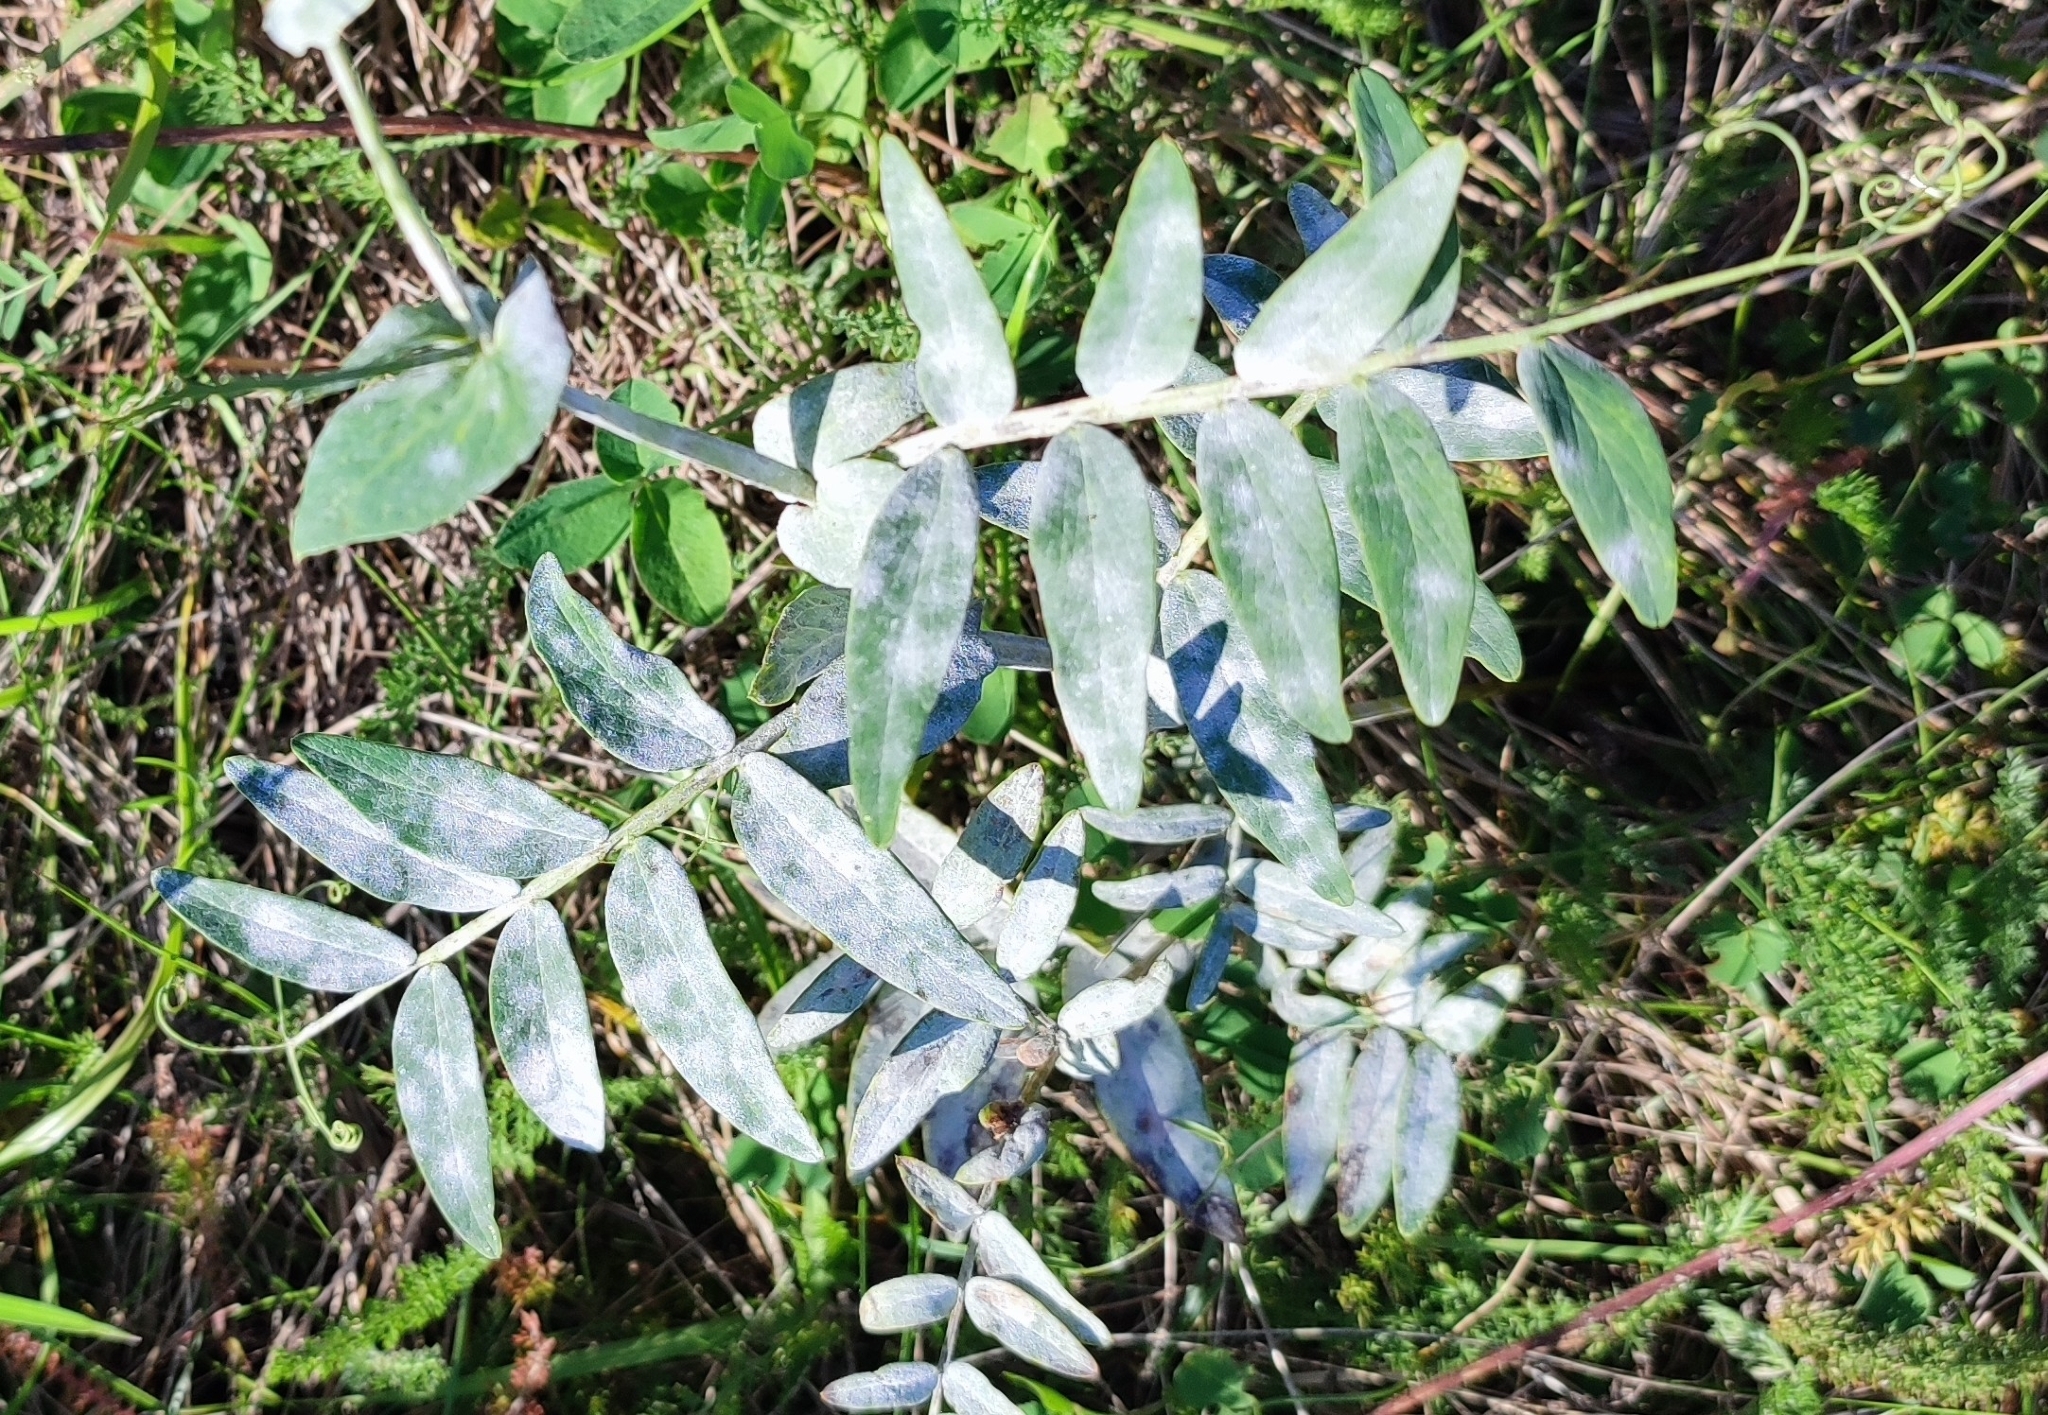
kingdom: Plantae
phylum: Tracheophyta
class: Magnoliopsida
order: Fabales
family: Fabaceae
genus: Lathyrus
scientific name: Lathyrus pisiformis
